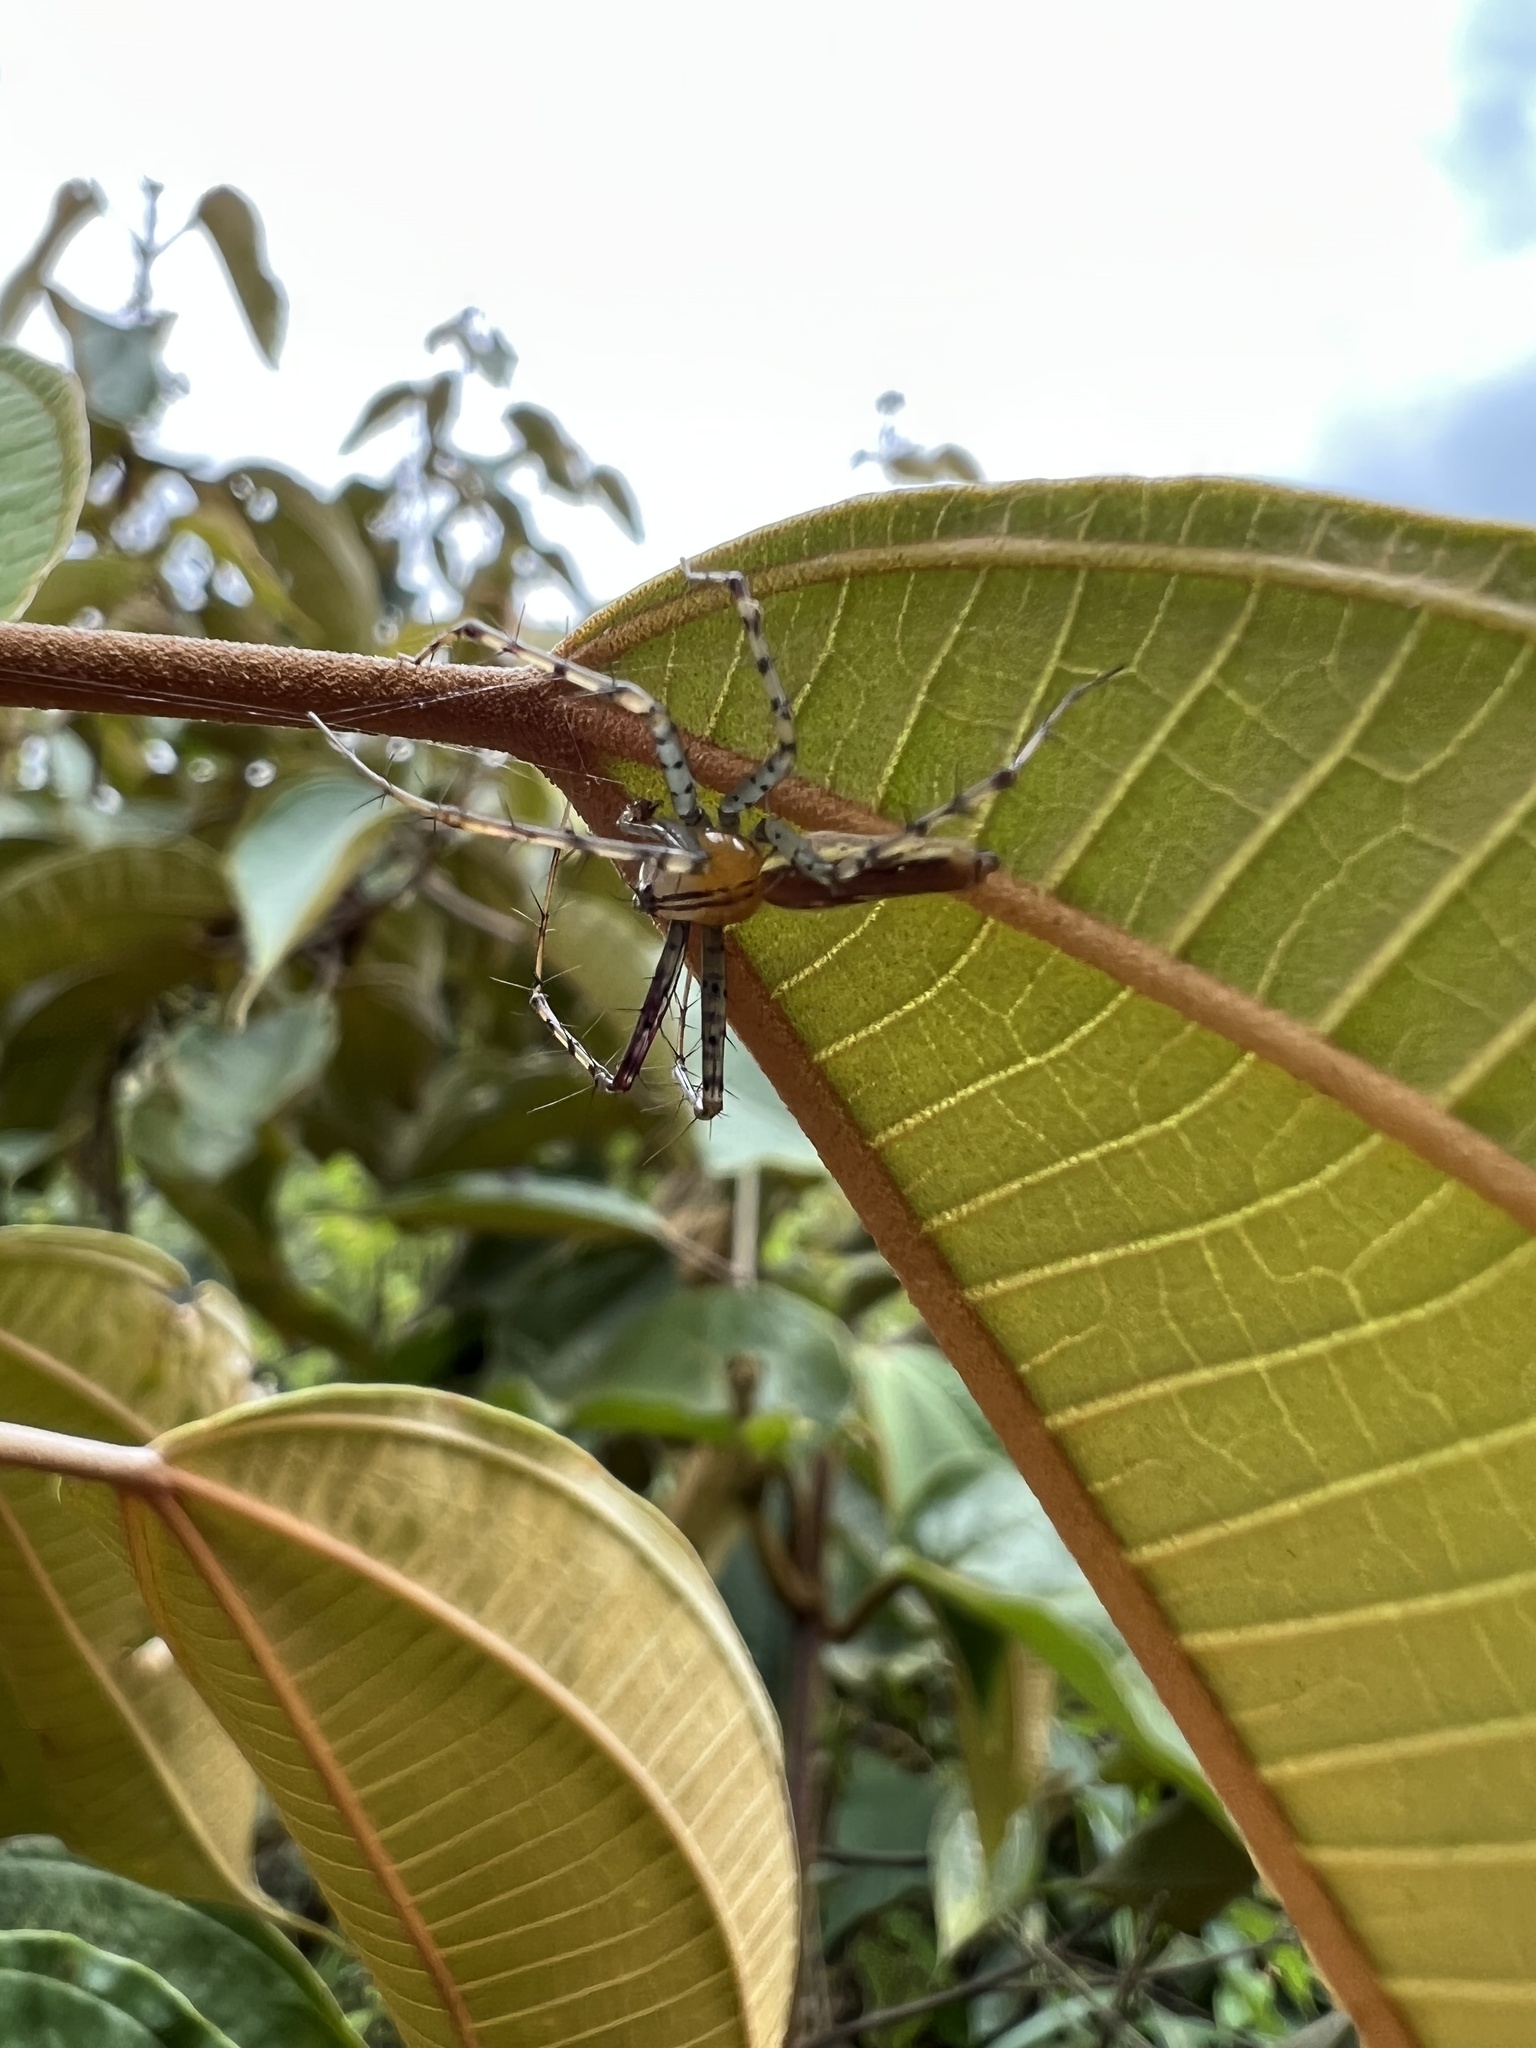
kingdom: Animalia
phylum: Arthropoda
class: Arachnida
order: Araneae
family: Oxyopidae
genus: Peucetia
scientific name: Peucetia rubrolineata
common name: Lynx spiders
